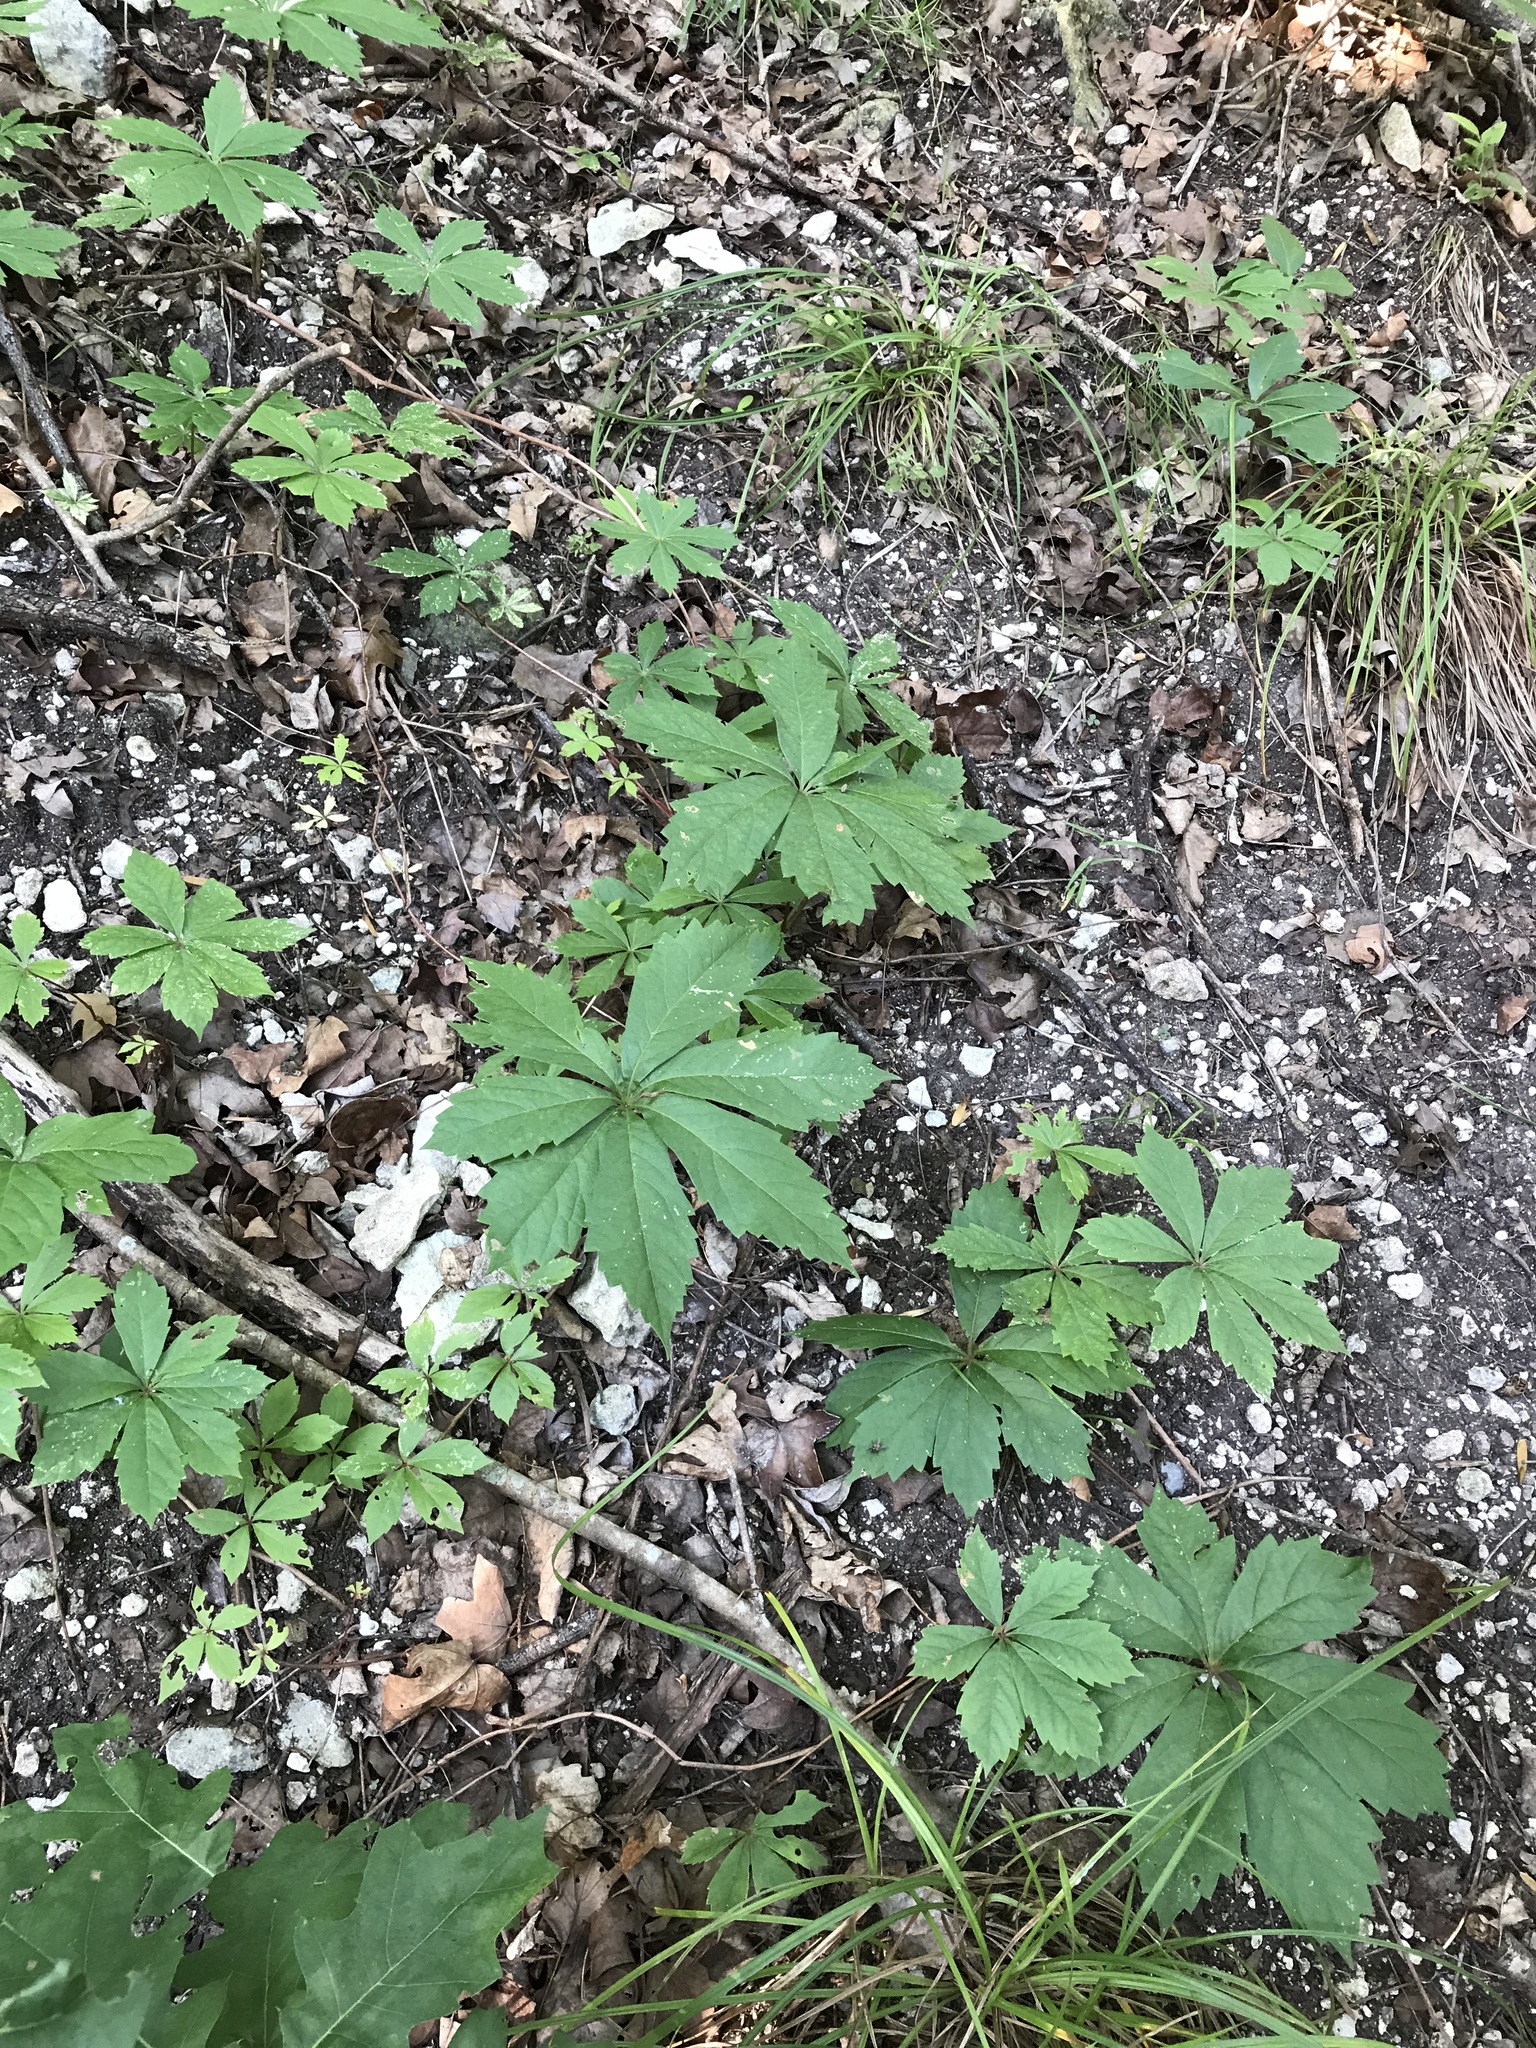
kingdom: Plantae
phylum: Tracheophyta
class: Magnoliopsida
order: Vitales
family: Vitaceae
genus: Parthenocissus
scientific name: Parthenocissus heptaphylla
